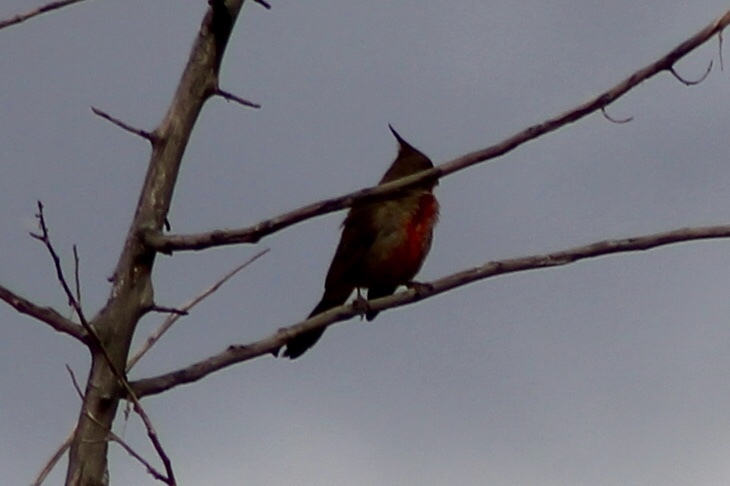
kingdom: Animalia
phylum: Chordata
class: Aves
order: Passeriformes
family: Cardinalidae
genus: Cardinalis
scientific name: Cardinalis sinuatus
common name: Pyrrhuloxia
